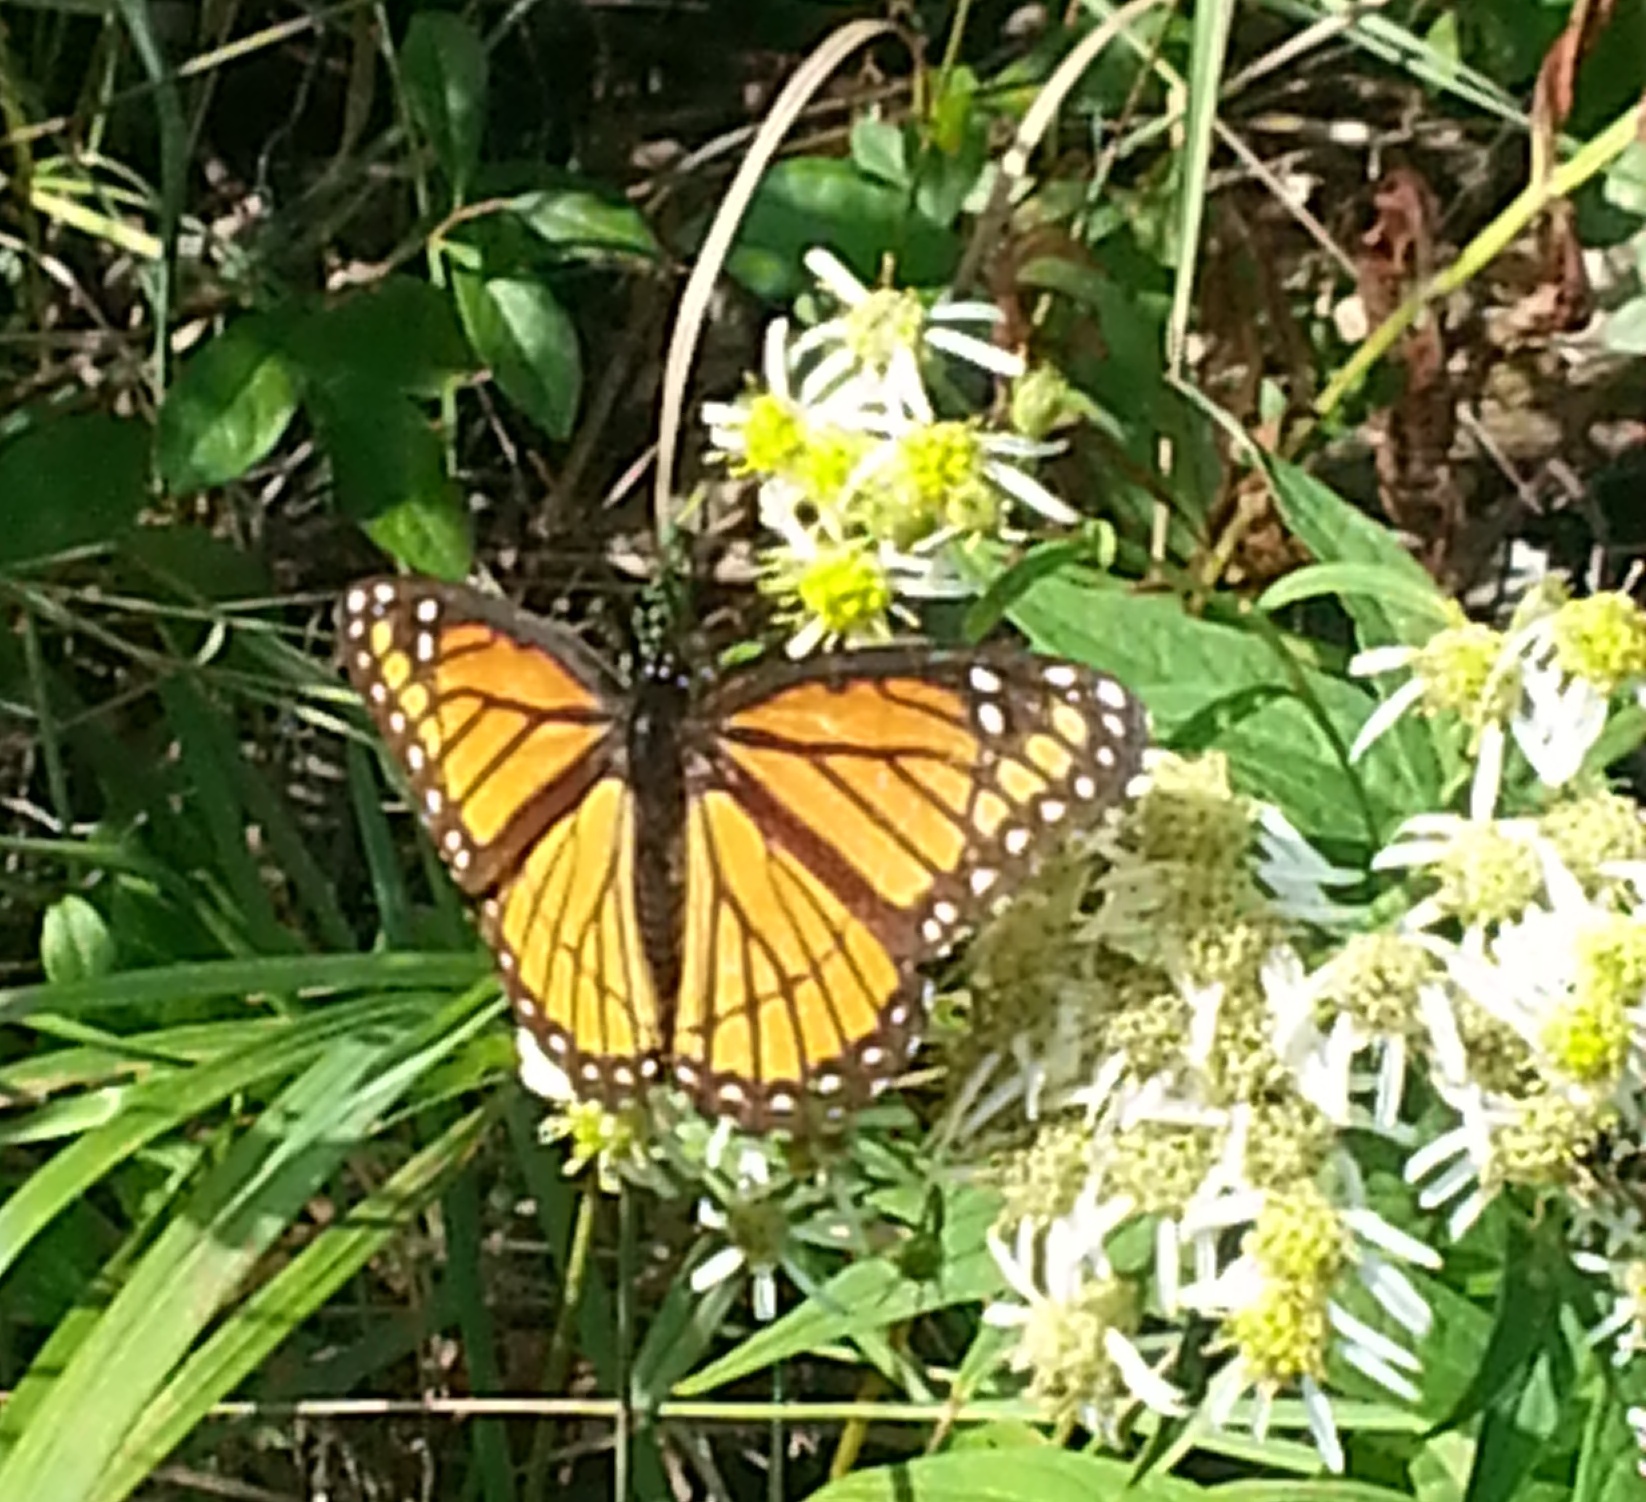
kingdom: Animalia
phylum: Arthropoda
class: Insecta
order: Lepidoptera
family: Nymphalidae
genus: Limenitis
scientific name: Limenitis archippus
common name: Viceroy
